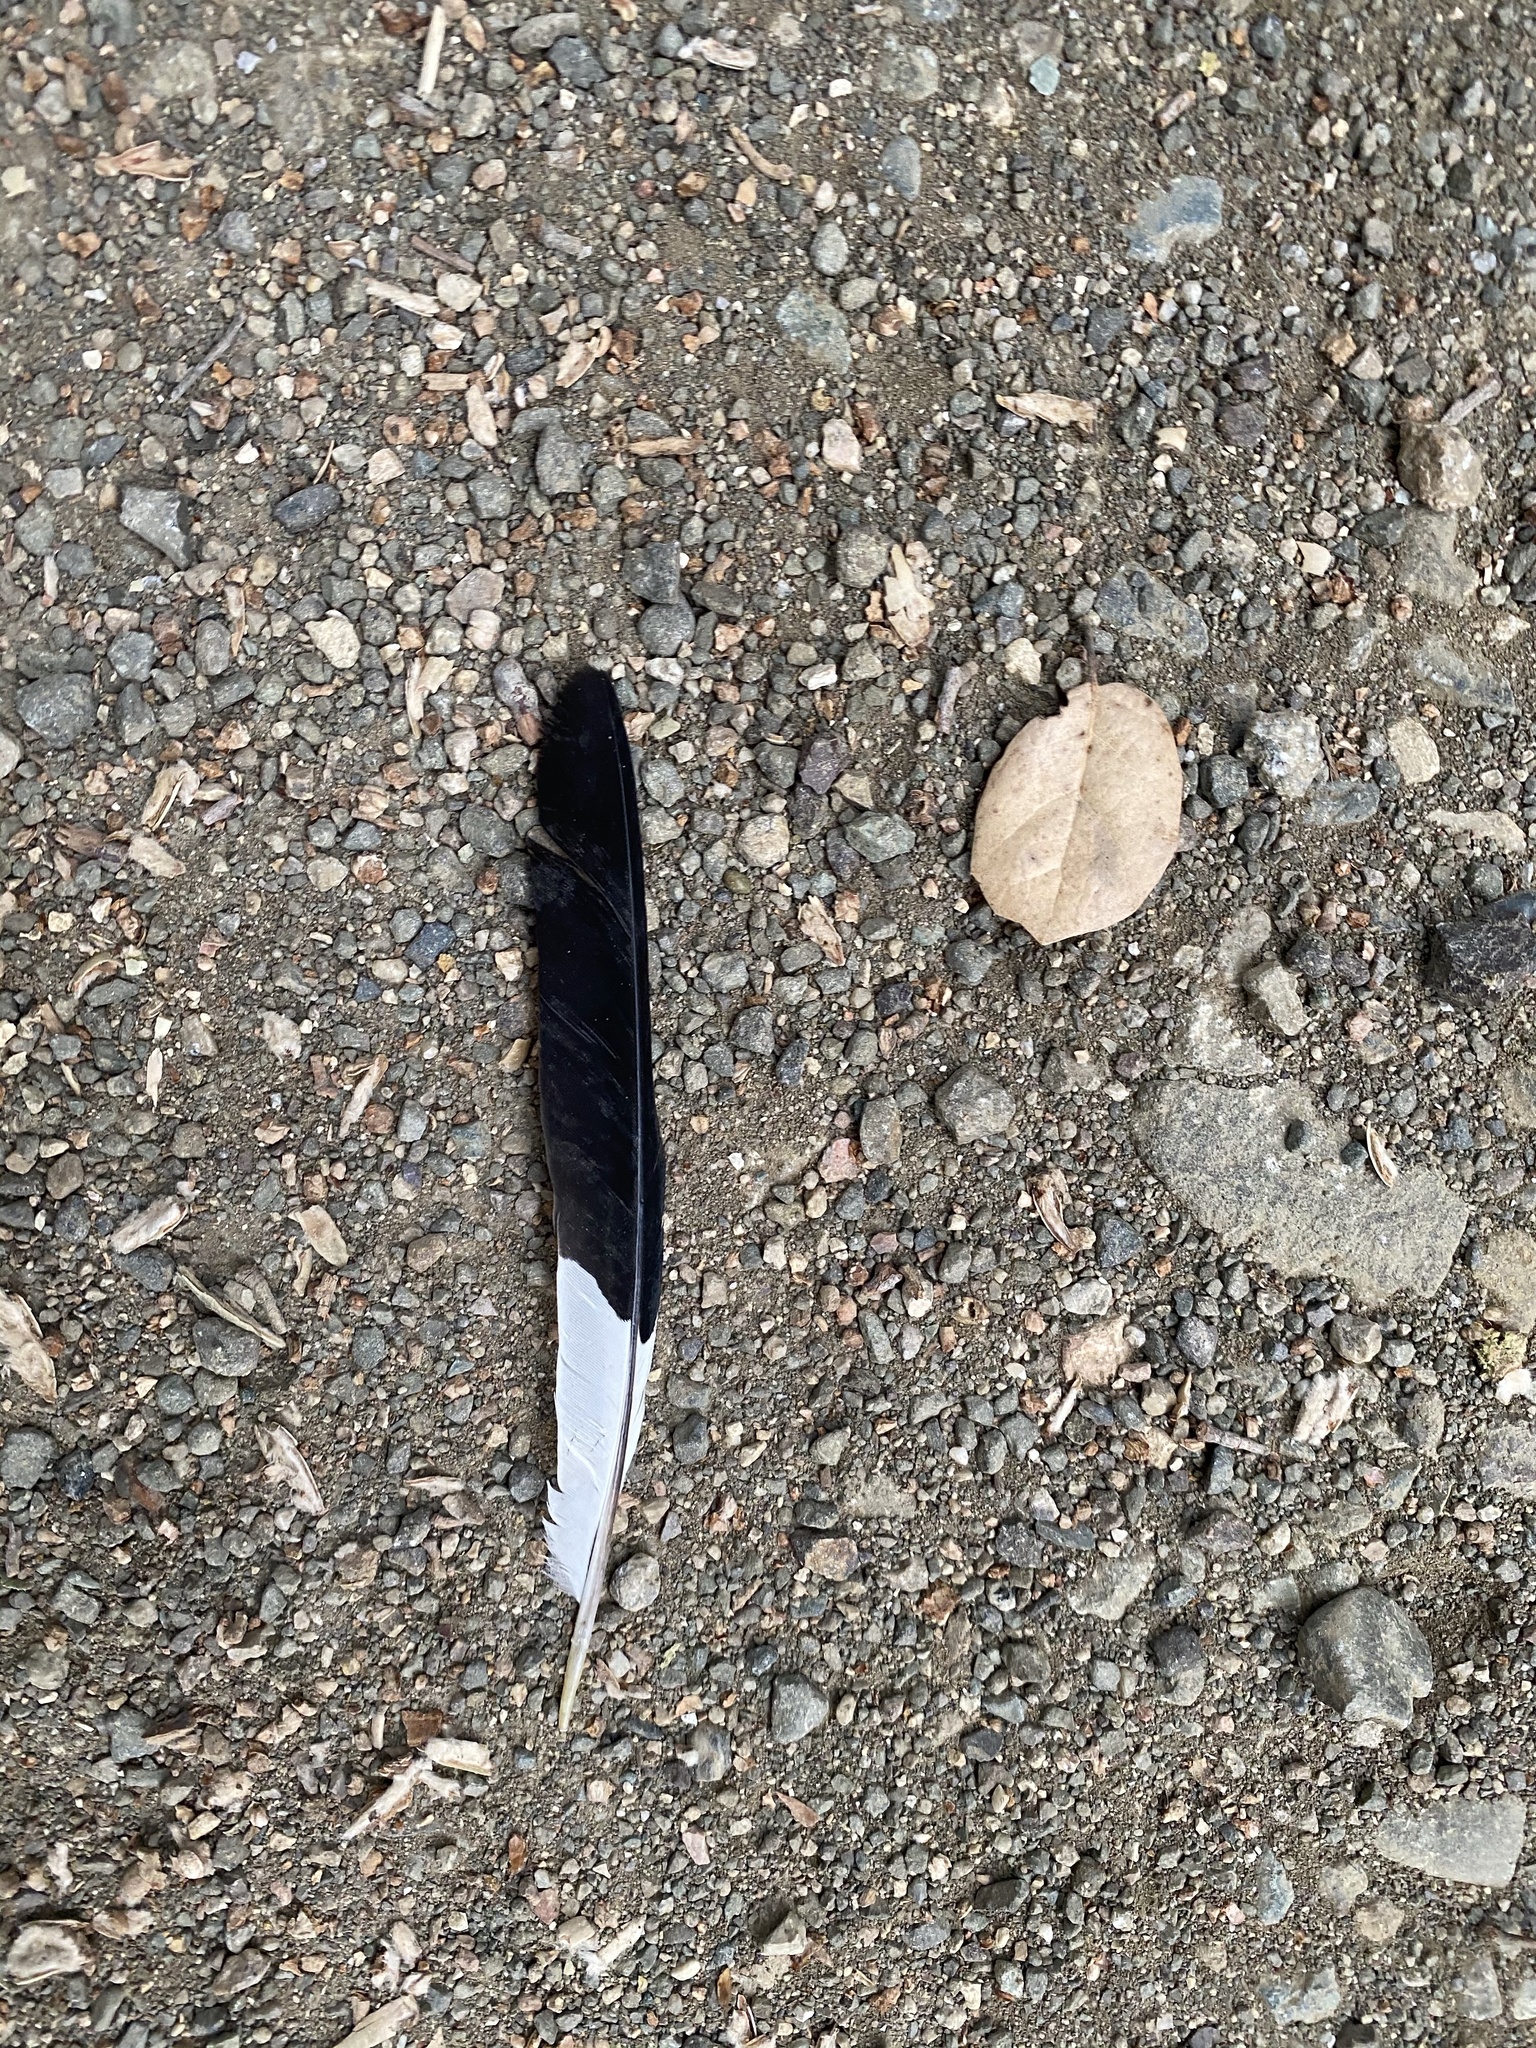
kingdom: Animalia
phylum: Chordata
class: Aves
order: Piciformes
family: Picidae
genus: Melanerpes
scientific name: Melanerpes formicivorus
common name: Acorn woodpecker
